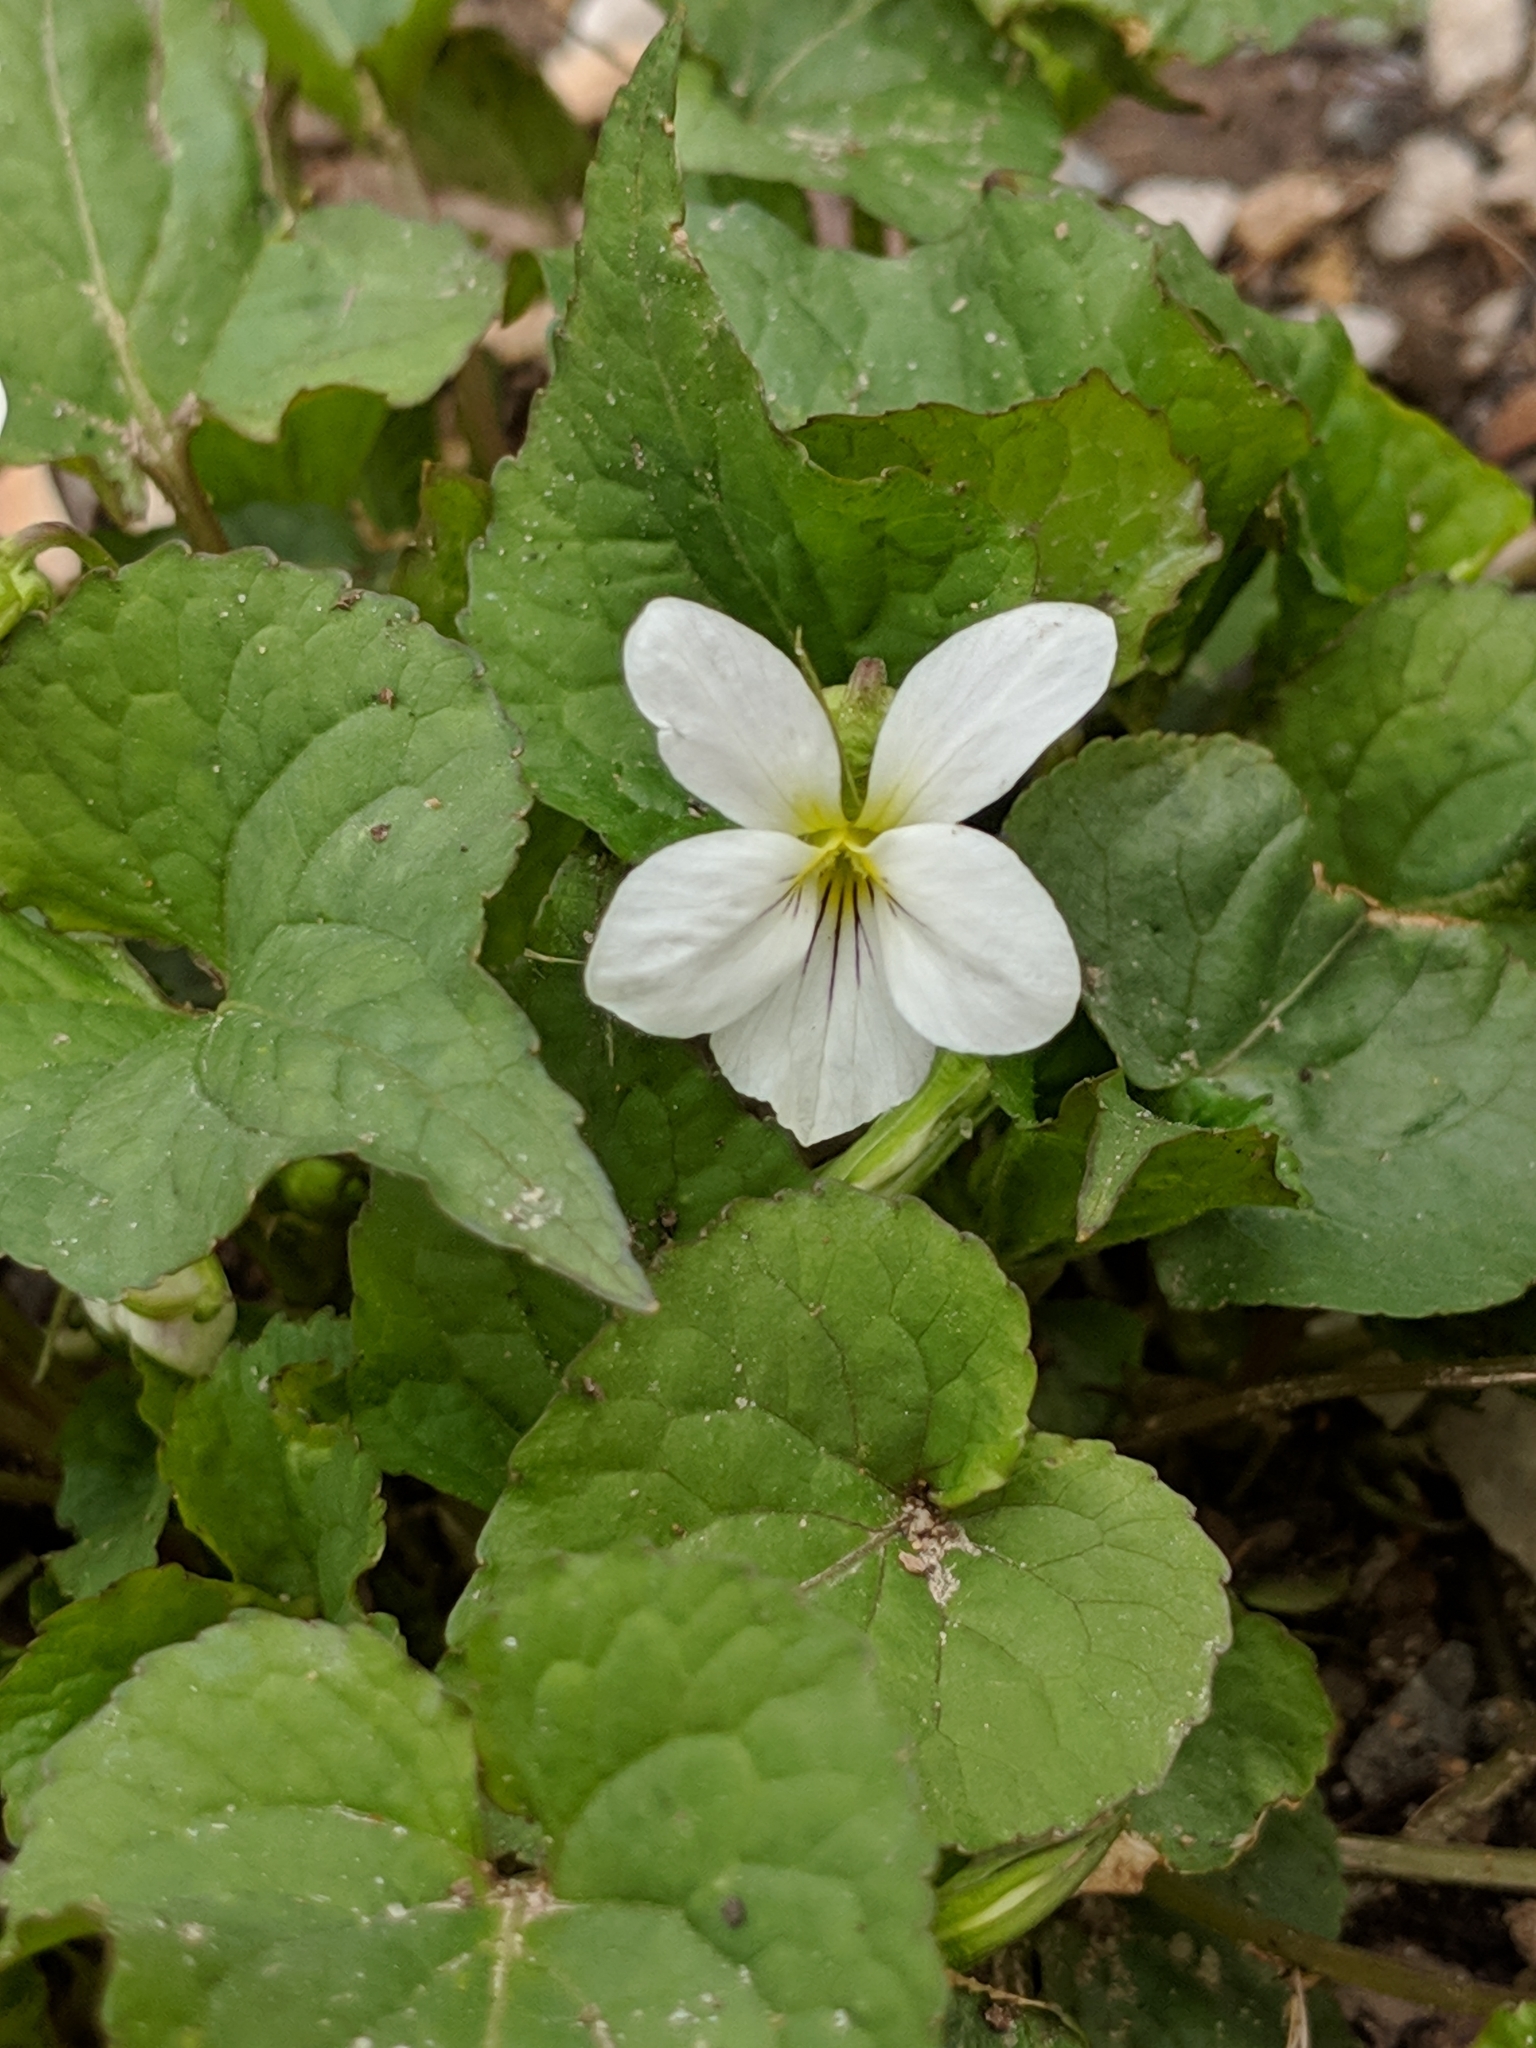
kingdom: Plantae
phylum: Tracheophyta
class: Magnoliopsida
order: Malpighiales
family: Violaceae
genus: Viola
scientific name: Viola canadensis
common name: Canada violet
